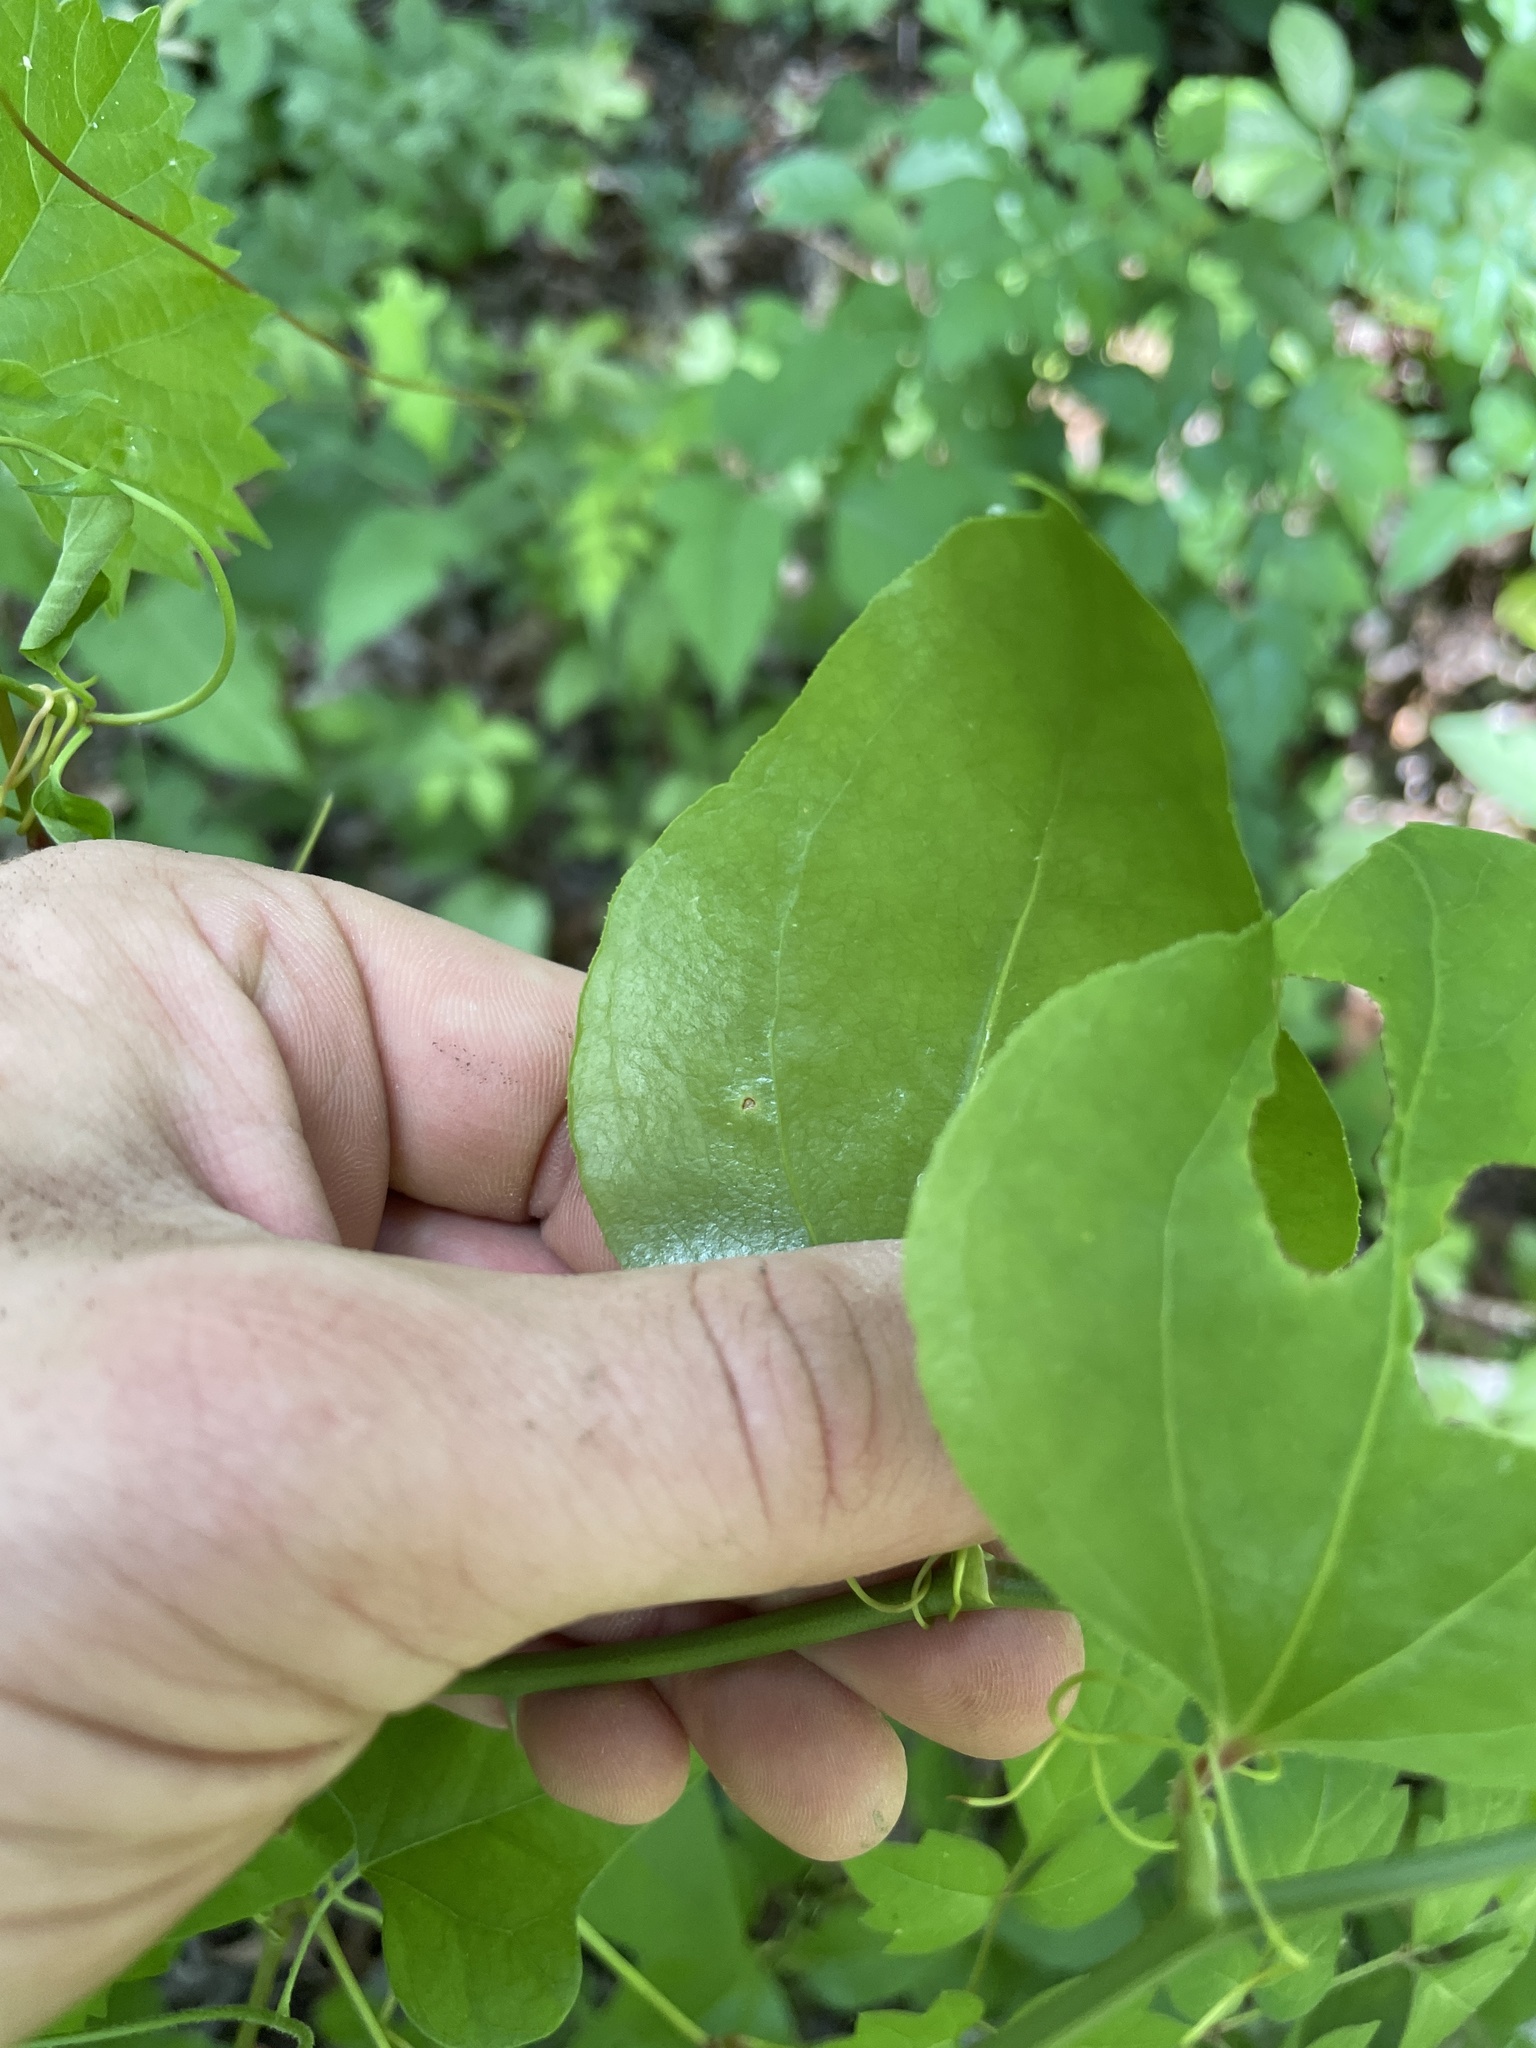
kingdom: Plantae
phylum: Tracheophyta
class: Liliopsida
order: Liliales
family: Smilacaceae
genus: Smilax
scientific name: Smilax rotundifolia
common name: Bullbriar
